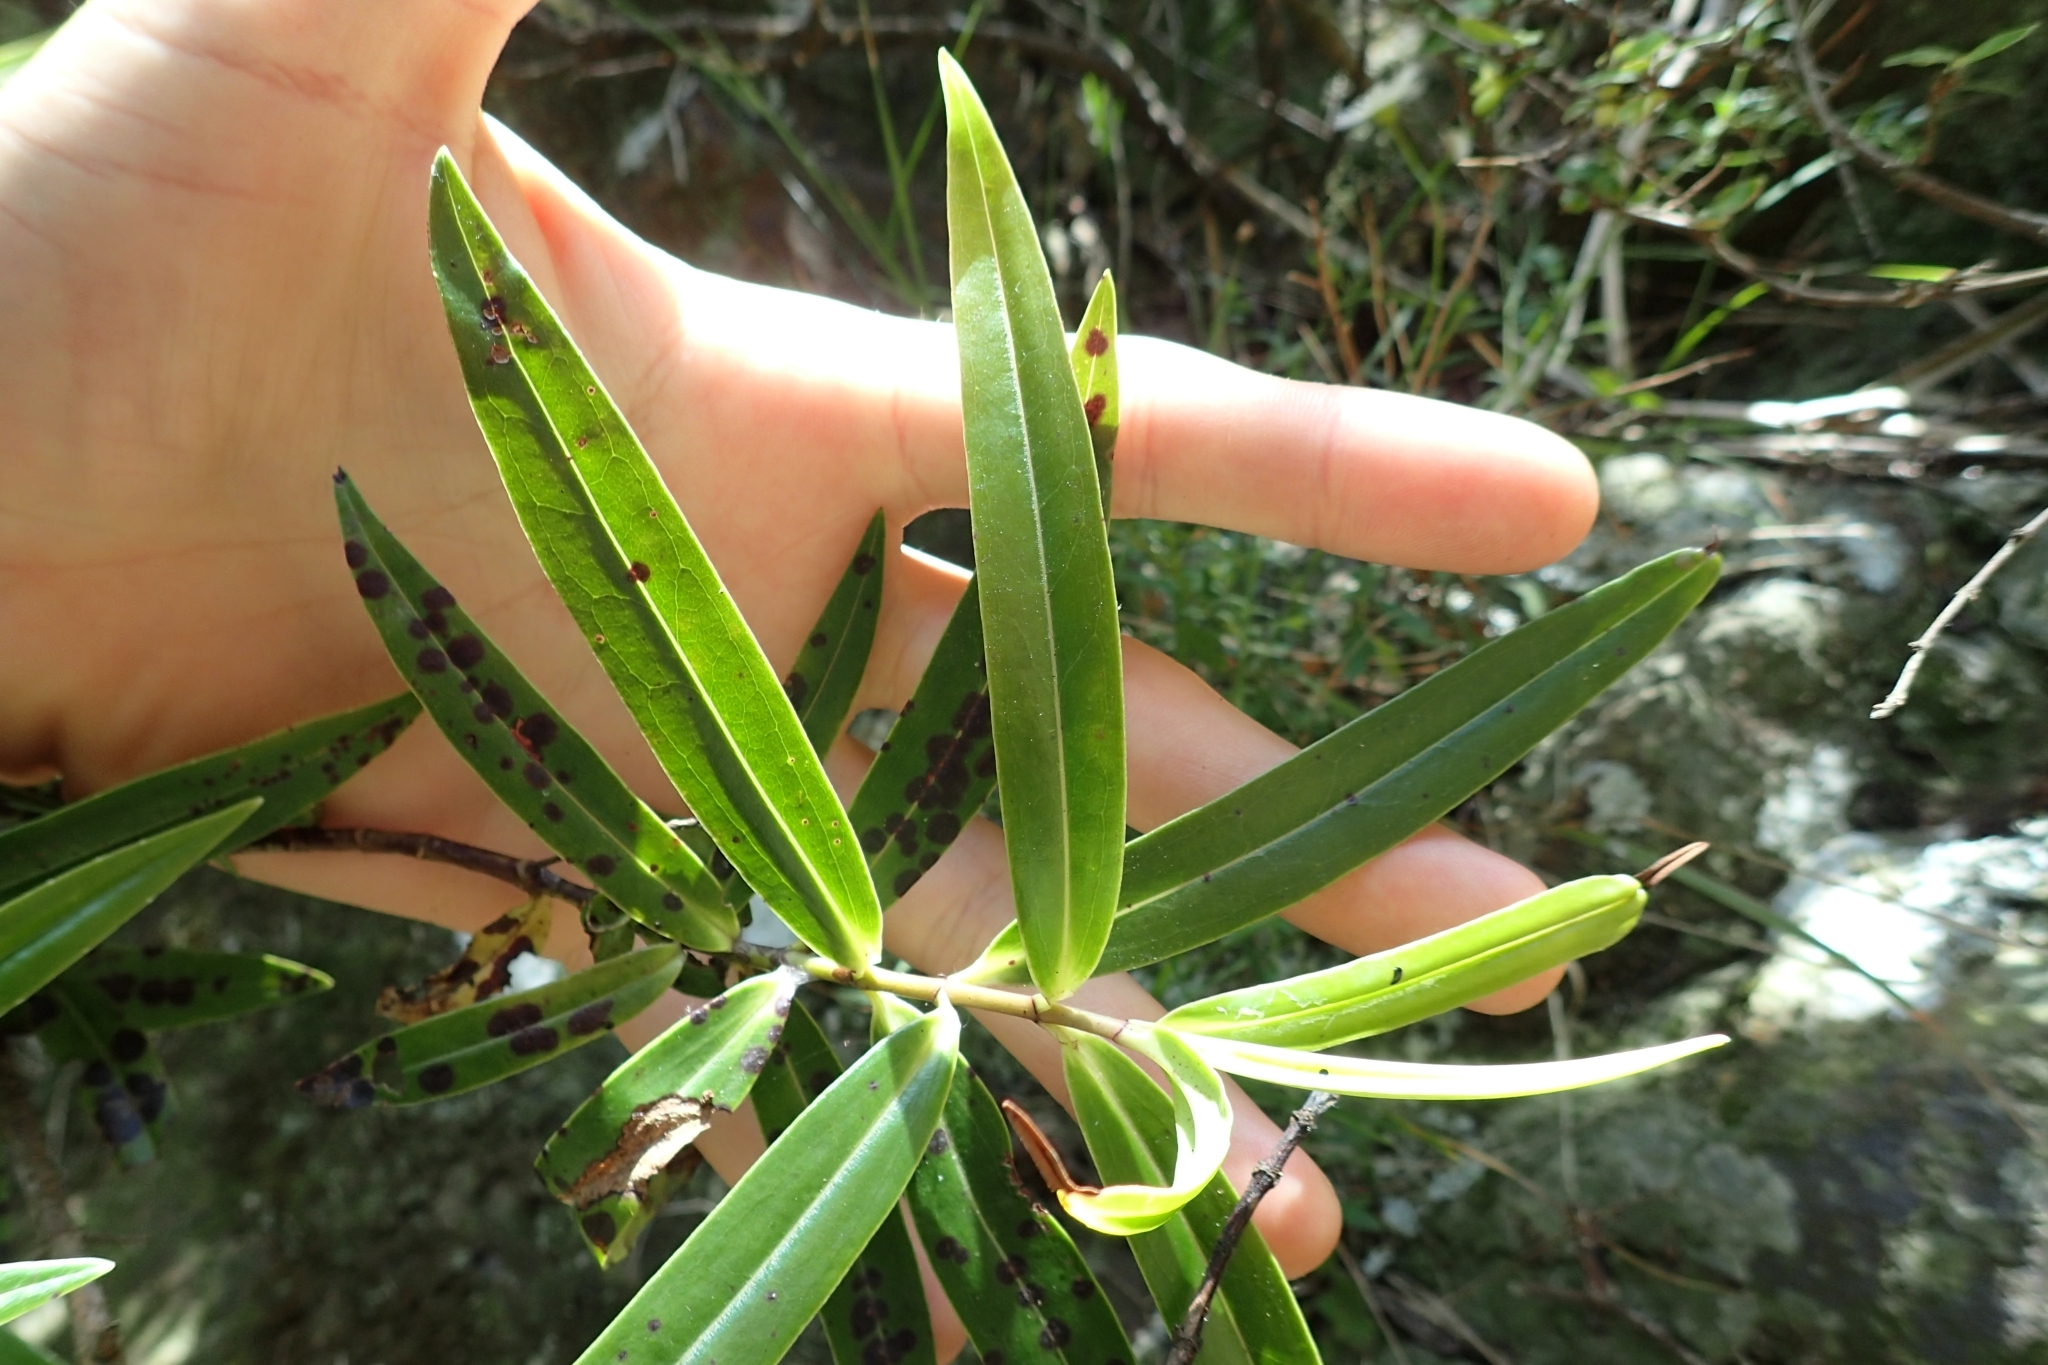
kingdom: Plantae
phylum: Tracheophyta
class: Magnoliopsida
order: Lamiales
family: Plantaginaceae
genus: Veronica
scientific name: Veronica corriganii
